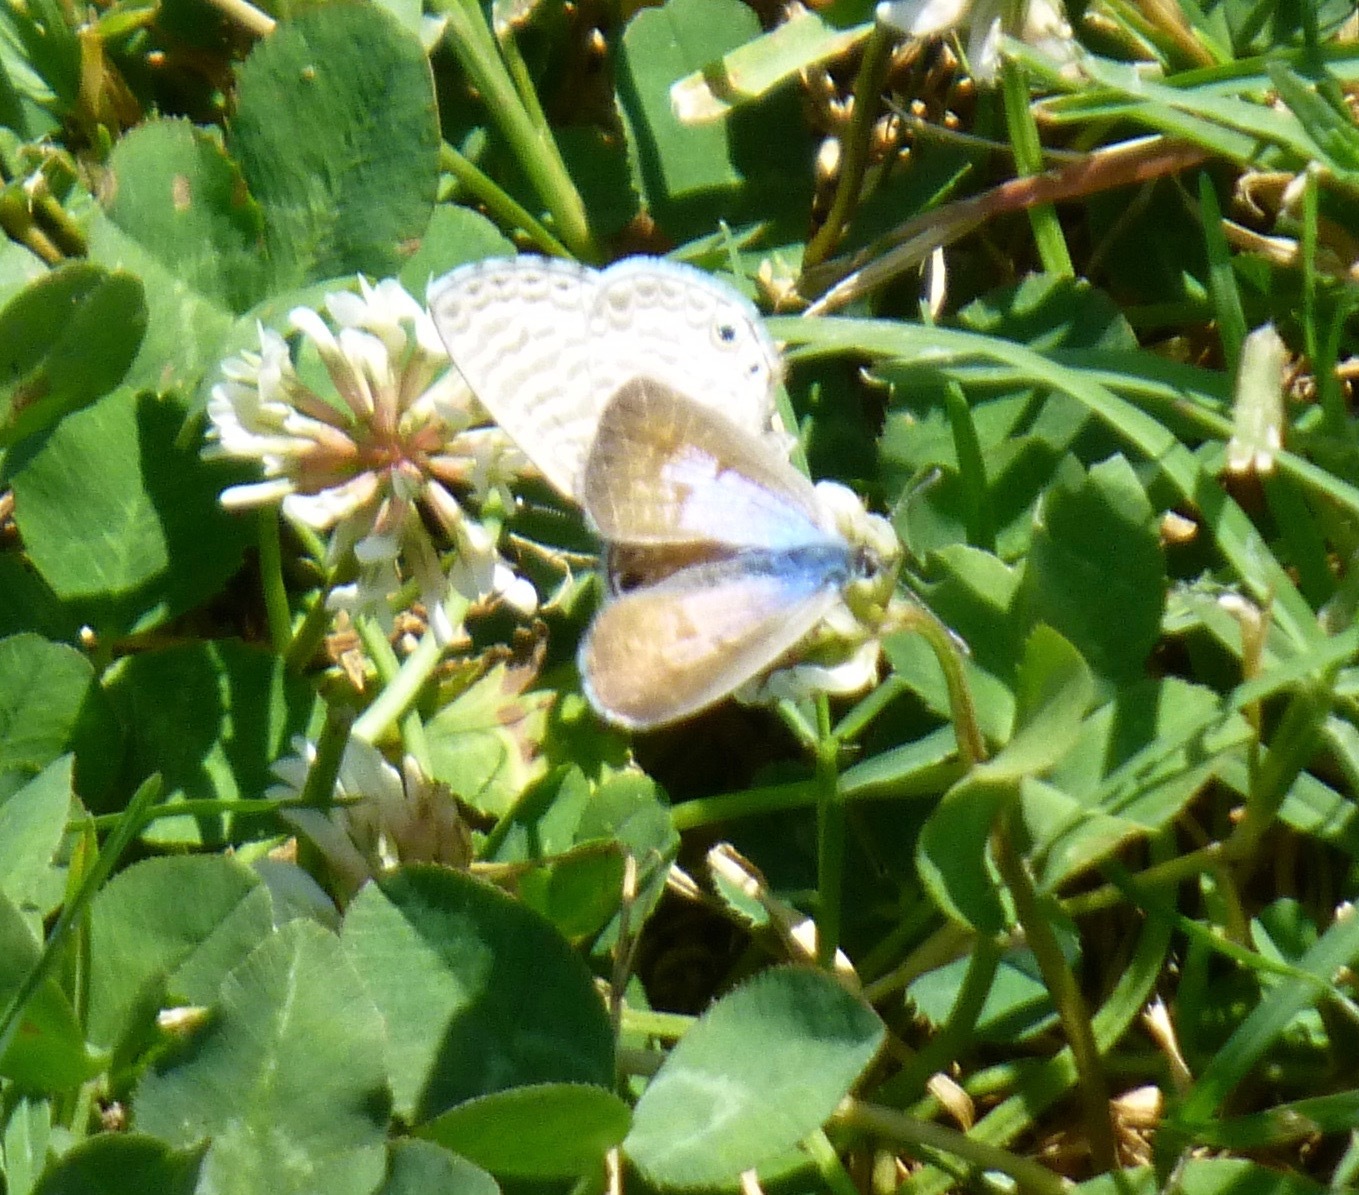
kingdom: Animalia
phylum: Arthropoda
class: Insecta
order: Lepidoptera
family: Lycaenidae
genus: Leptotes
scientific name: Leptotes marina
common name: Marine blue
